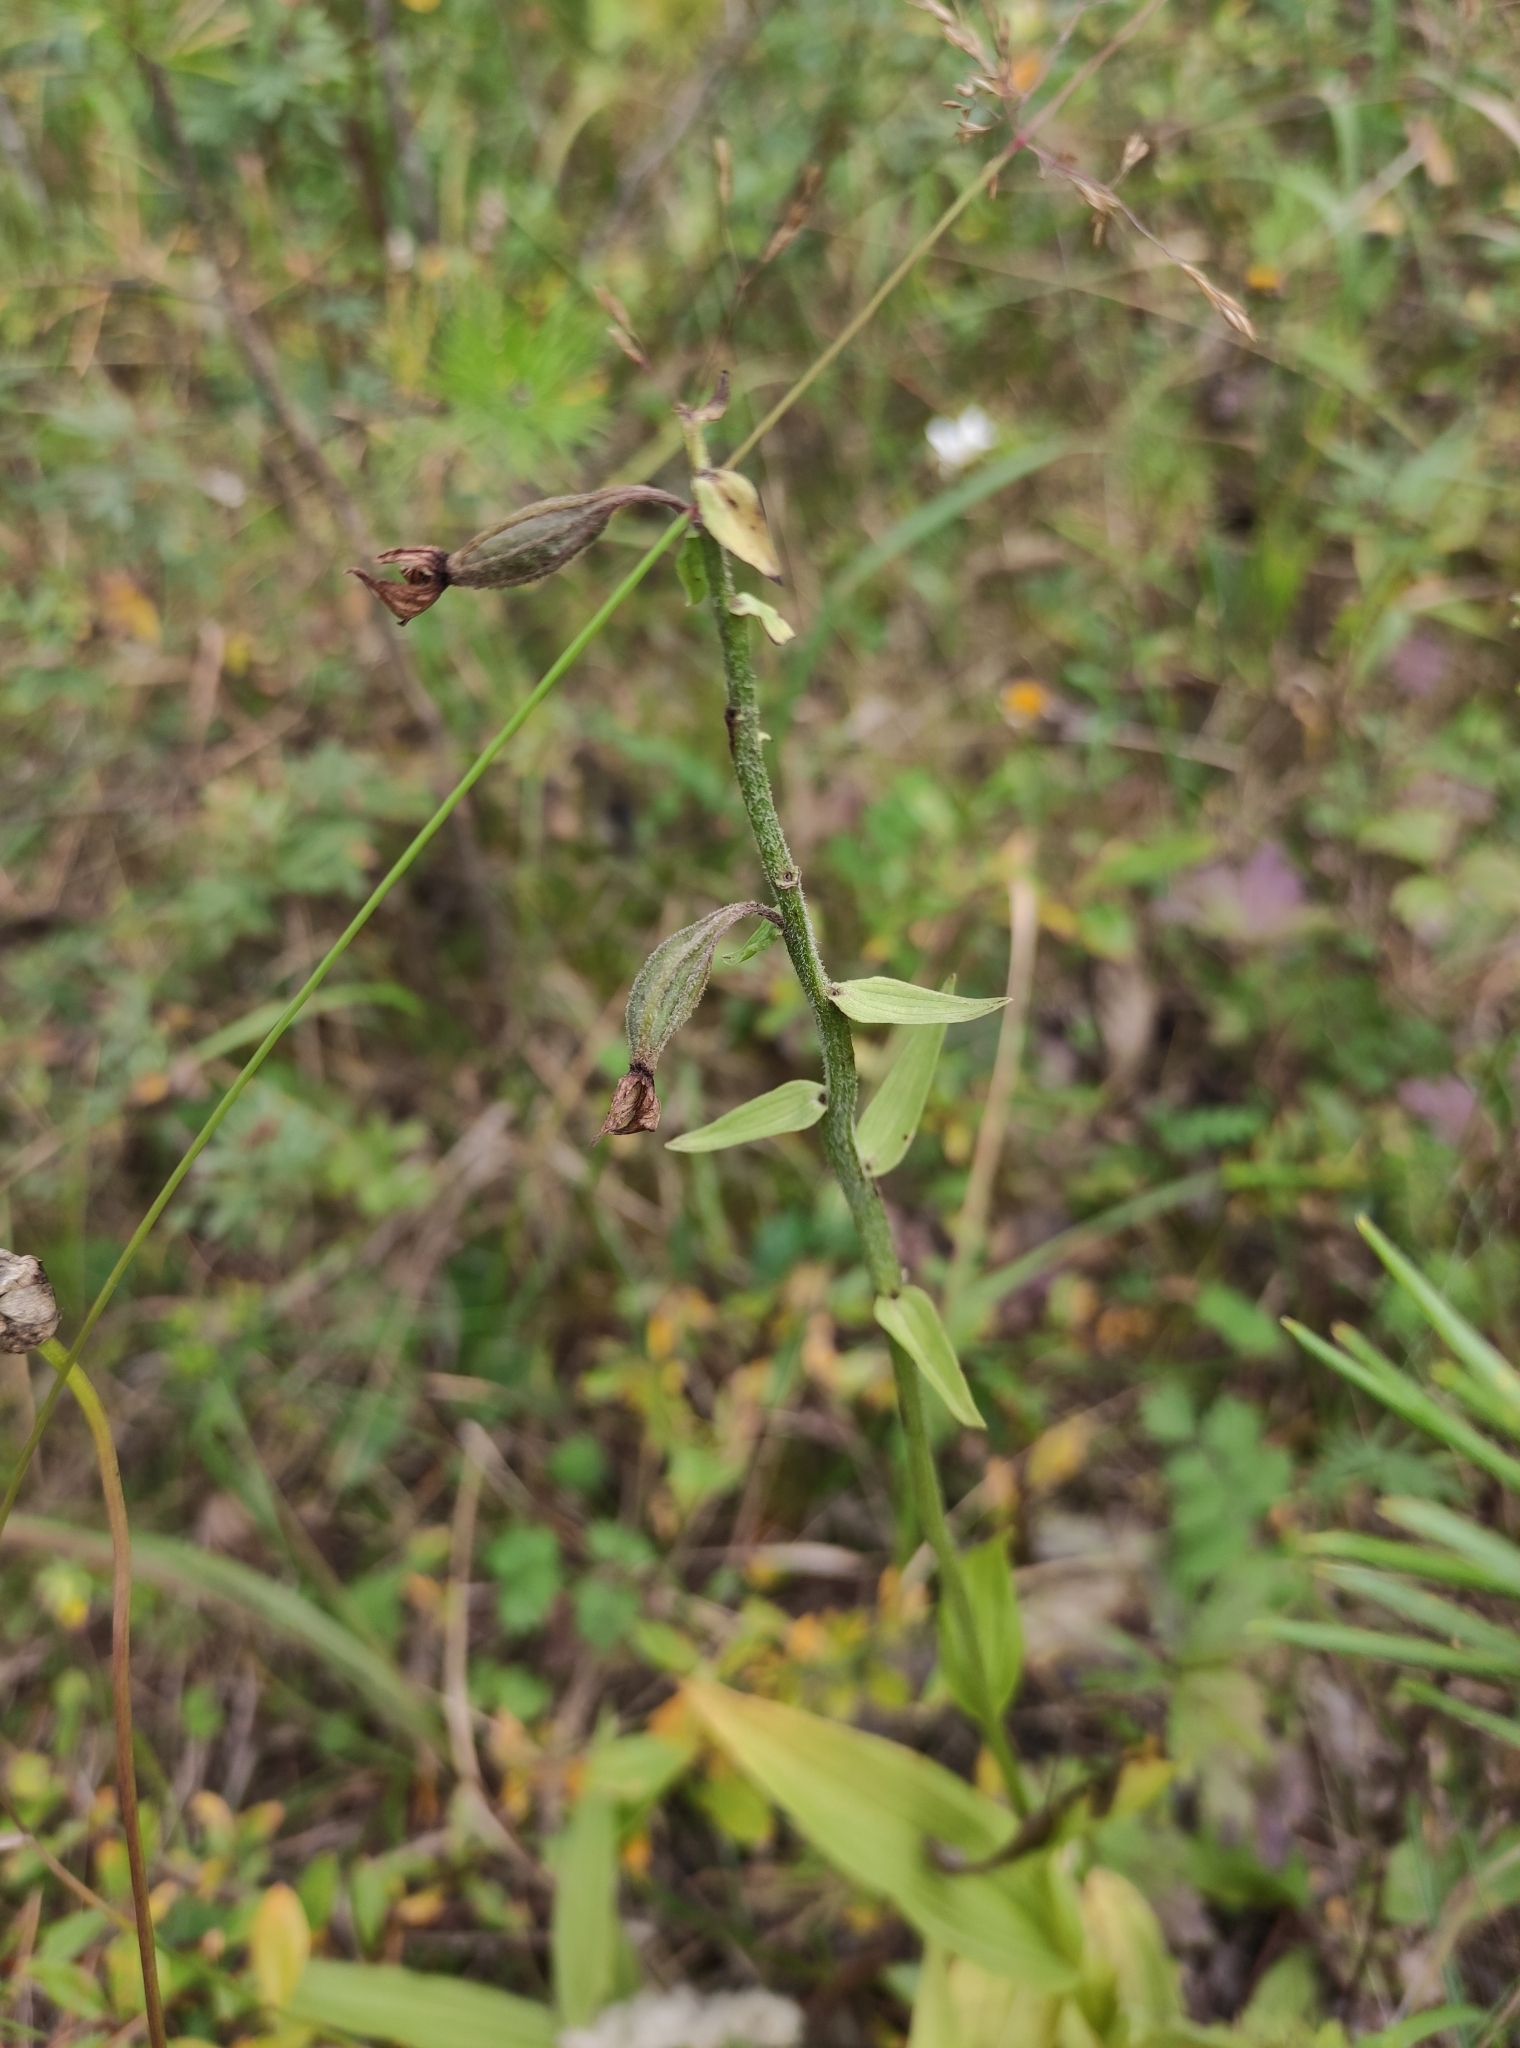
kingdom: Plantae
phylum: Tracheophyta
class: Liliopsida
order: Asparagales
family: Orchidaceae
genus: Epipactis
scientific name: Epipactis palustris
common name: Marsh helleborine
